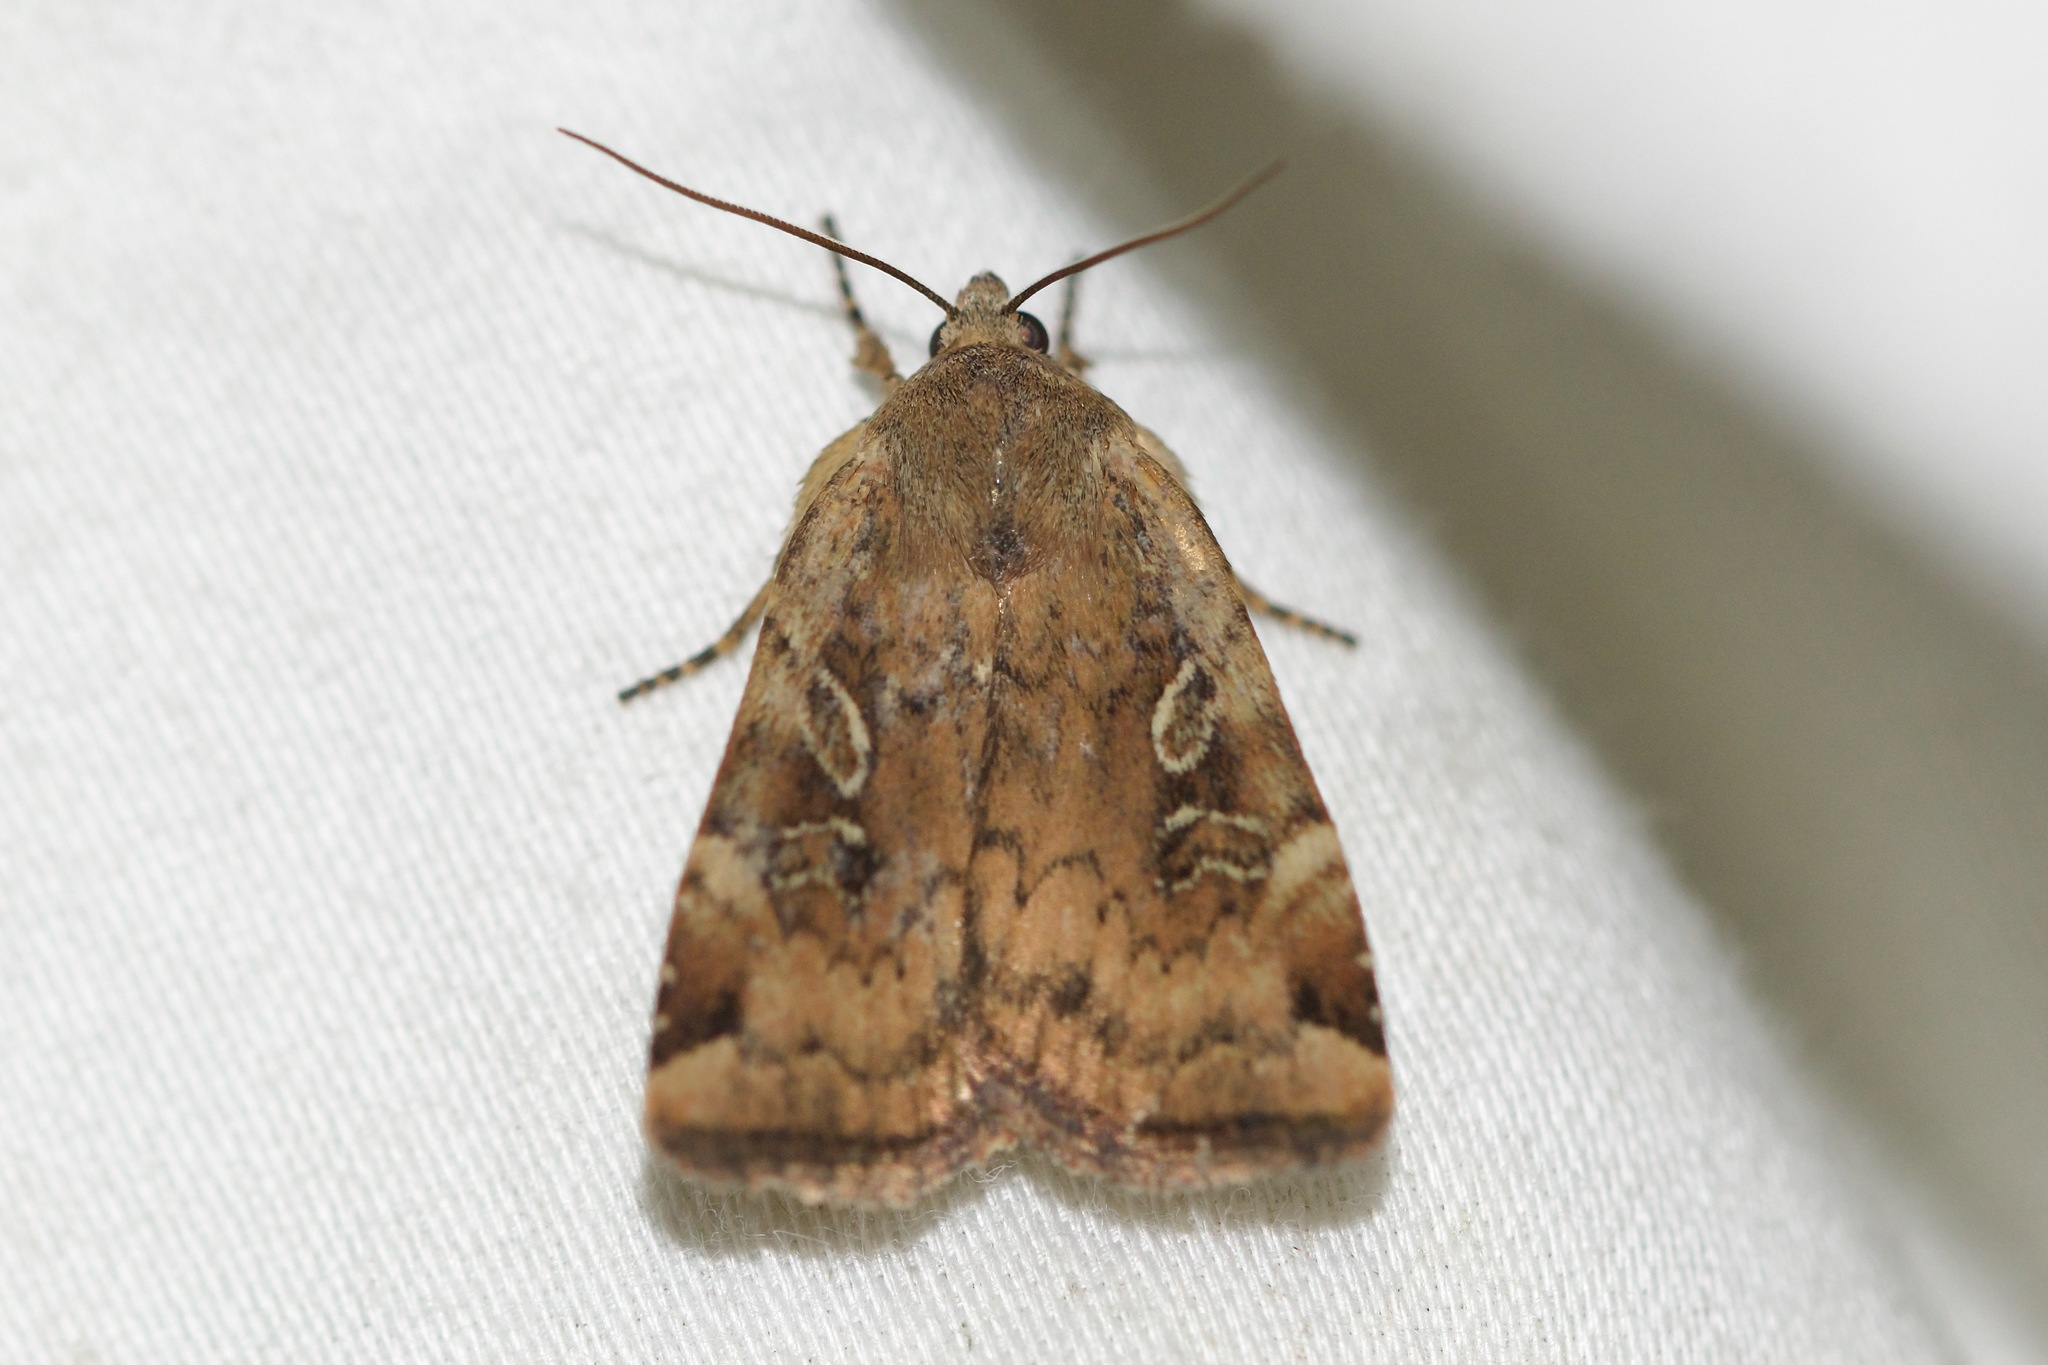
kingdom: Animalia
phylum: Arthropoda
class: Insecta
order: Lepidoptera
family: Noctuidae
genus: Cryptocala
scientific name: Cryptocala acadiensis
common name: Catocaline dart
